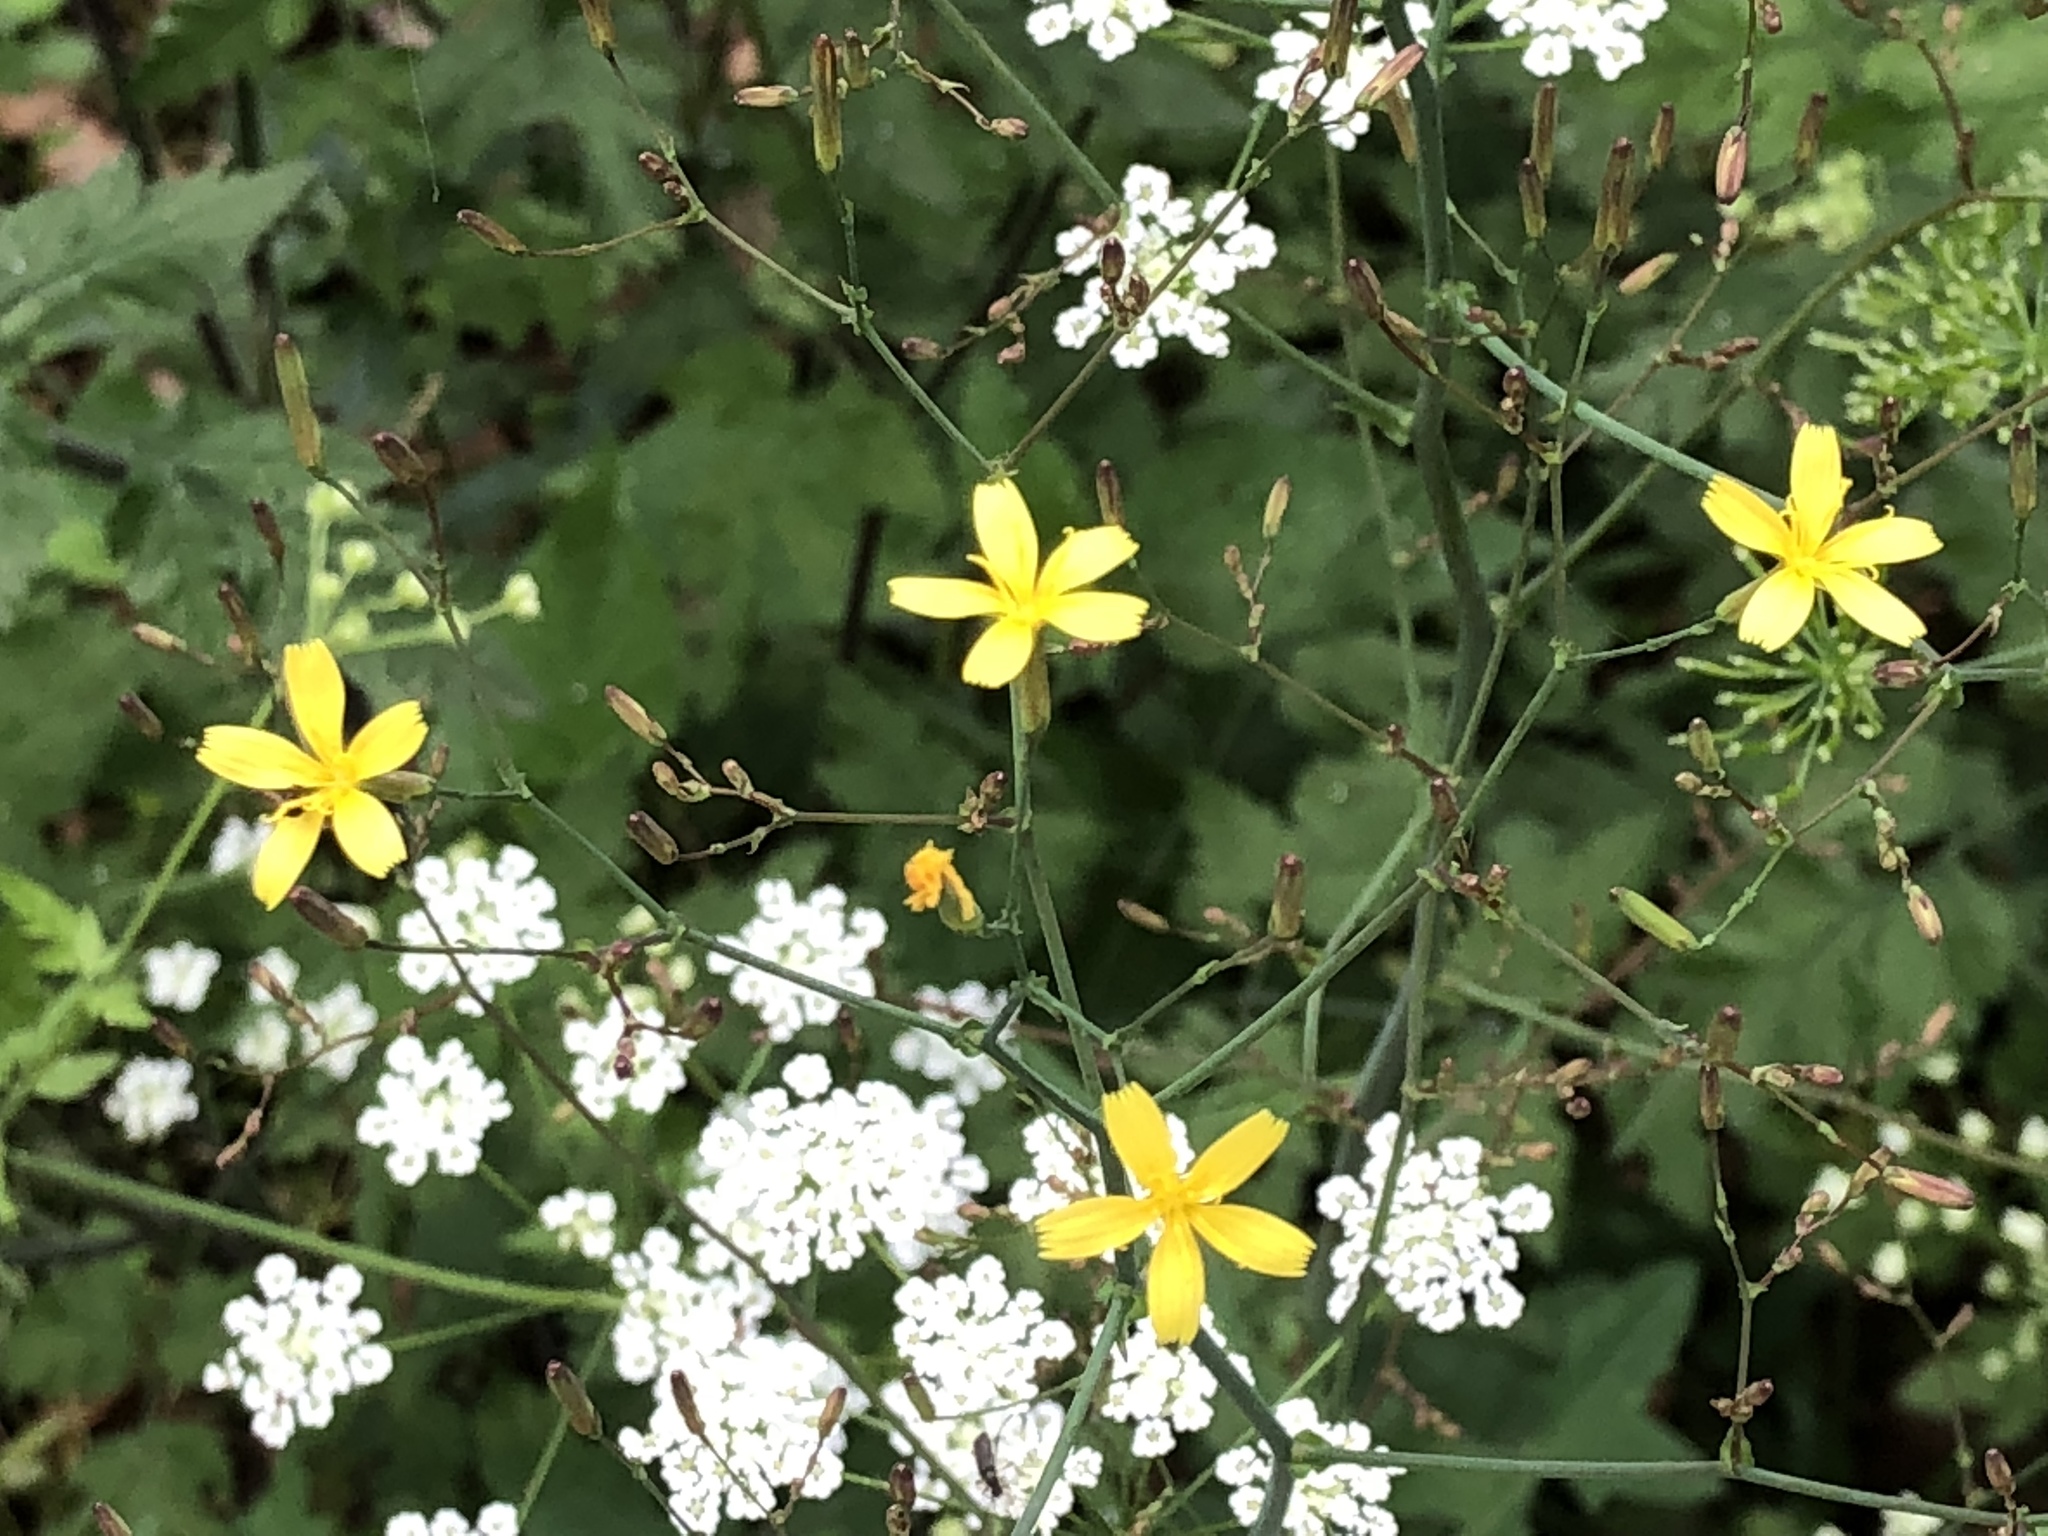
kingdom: Plantae
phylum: Tracheophyta
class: Magnoliopsida
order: Asterales
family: Asteraceae
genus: Mycelis
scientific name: Mycelis muralis
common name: Wall lettuce
